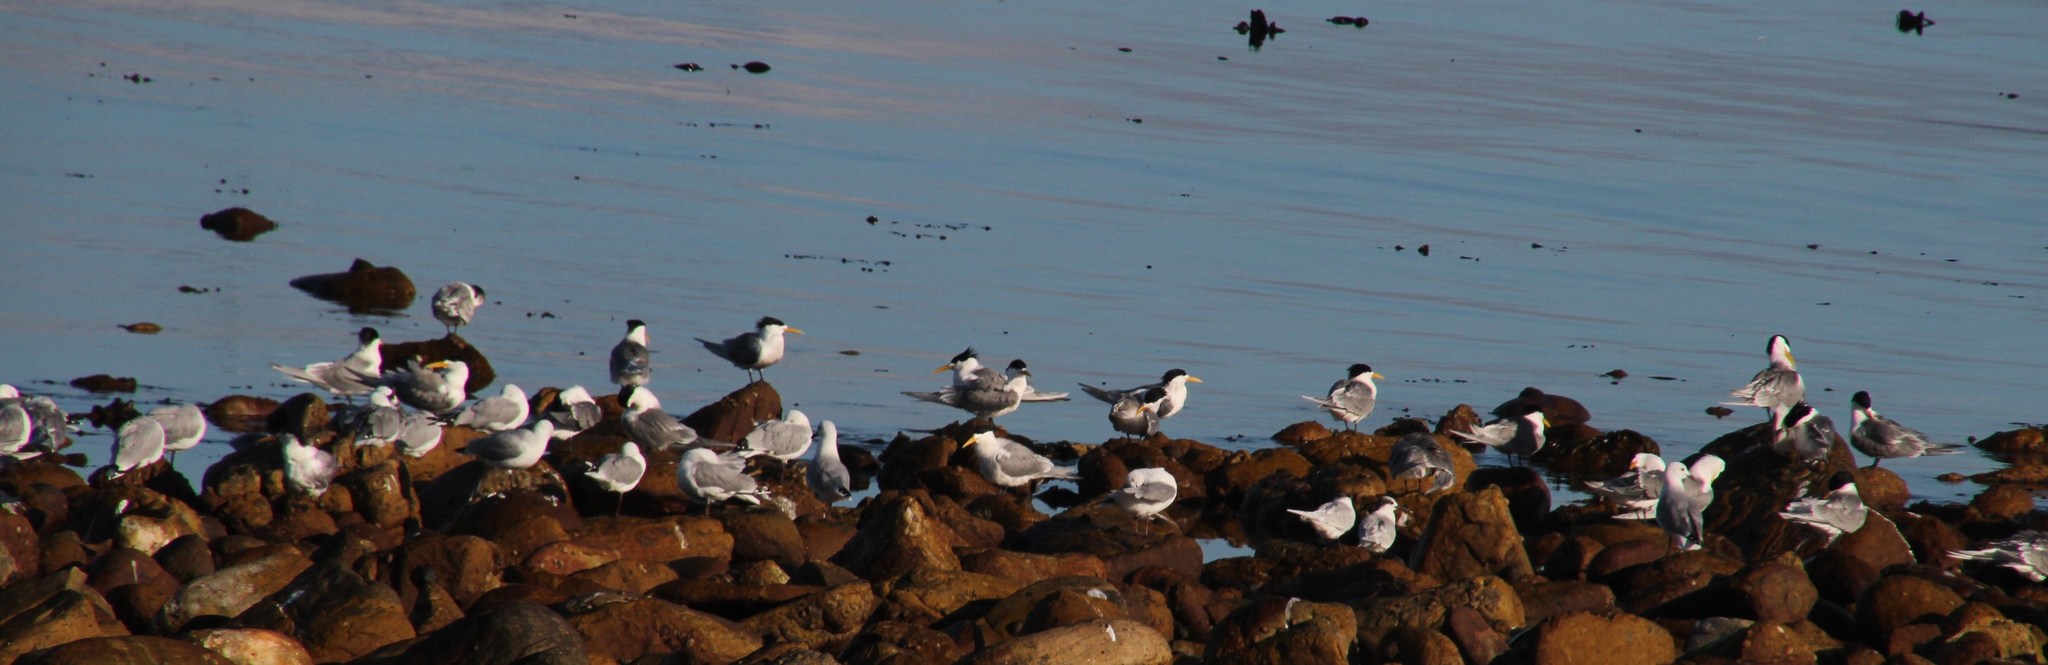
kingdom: Animalia
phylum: Chordata
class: Aves
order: Charadriiformes
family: Laridae
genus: Thalasseus
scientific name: Thalasseus bergii
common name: Greater crested tern
